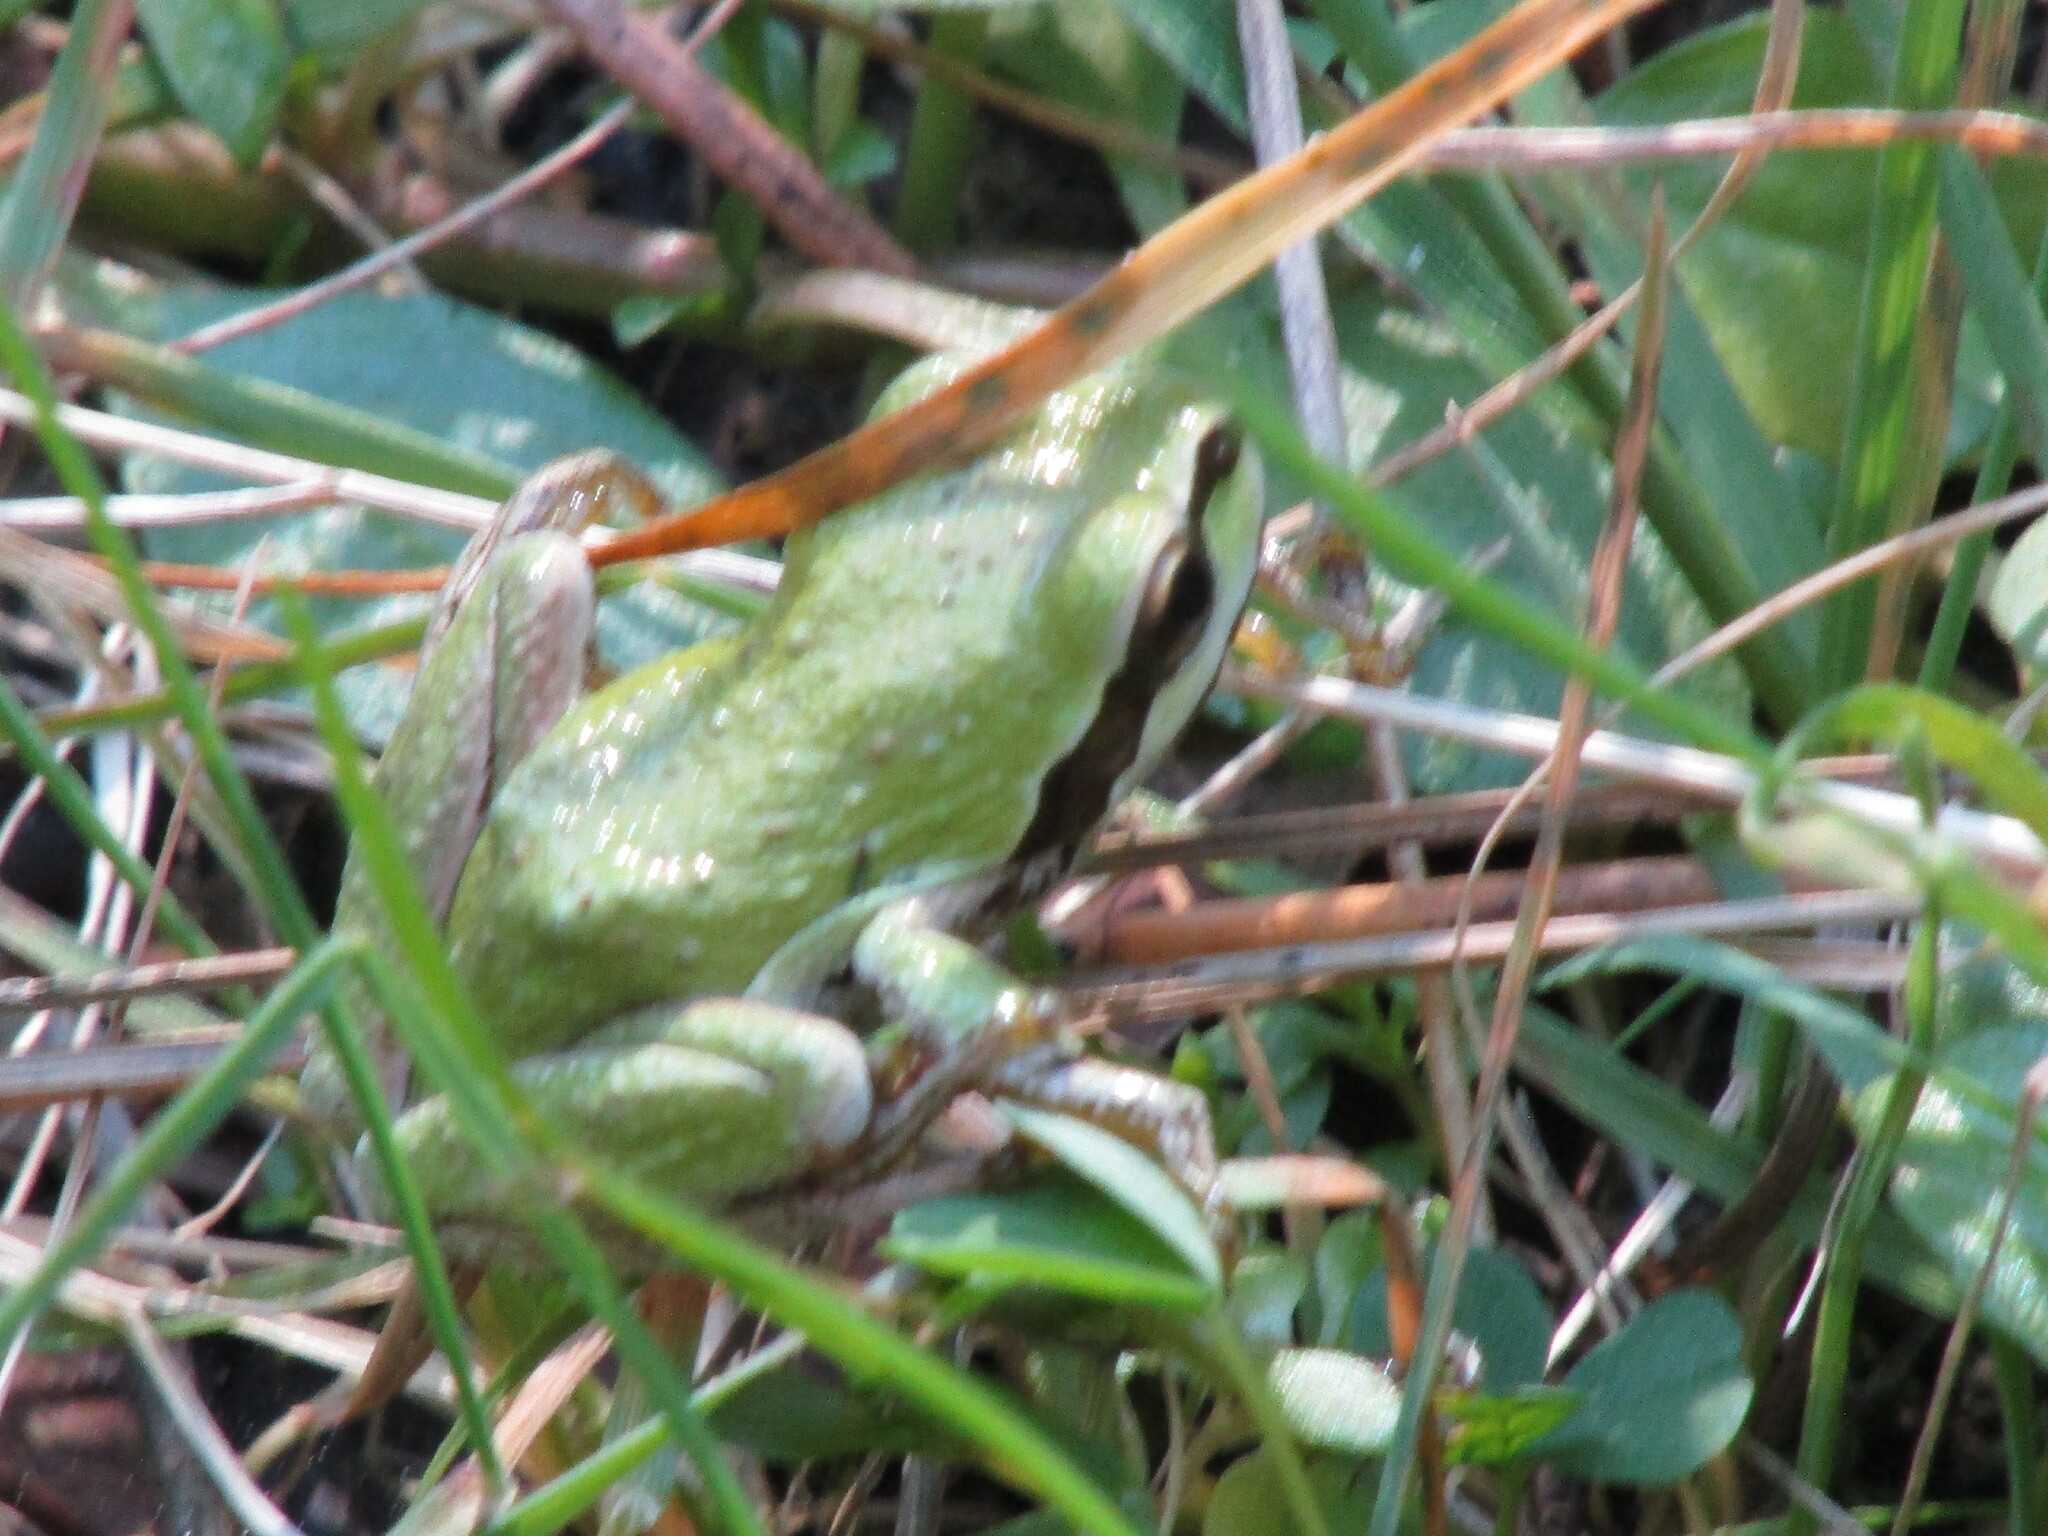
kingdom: Animalia
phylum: Chordata
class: Amphibia
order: Anura
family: Hylidae
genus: Pseudacris
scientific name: Pseudacris regilla
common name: Pacific chorus frog
